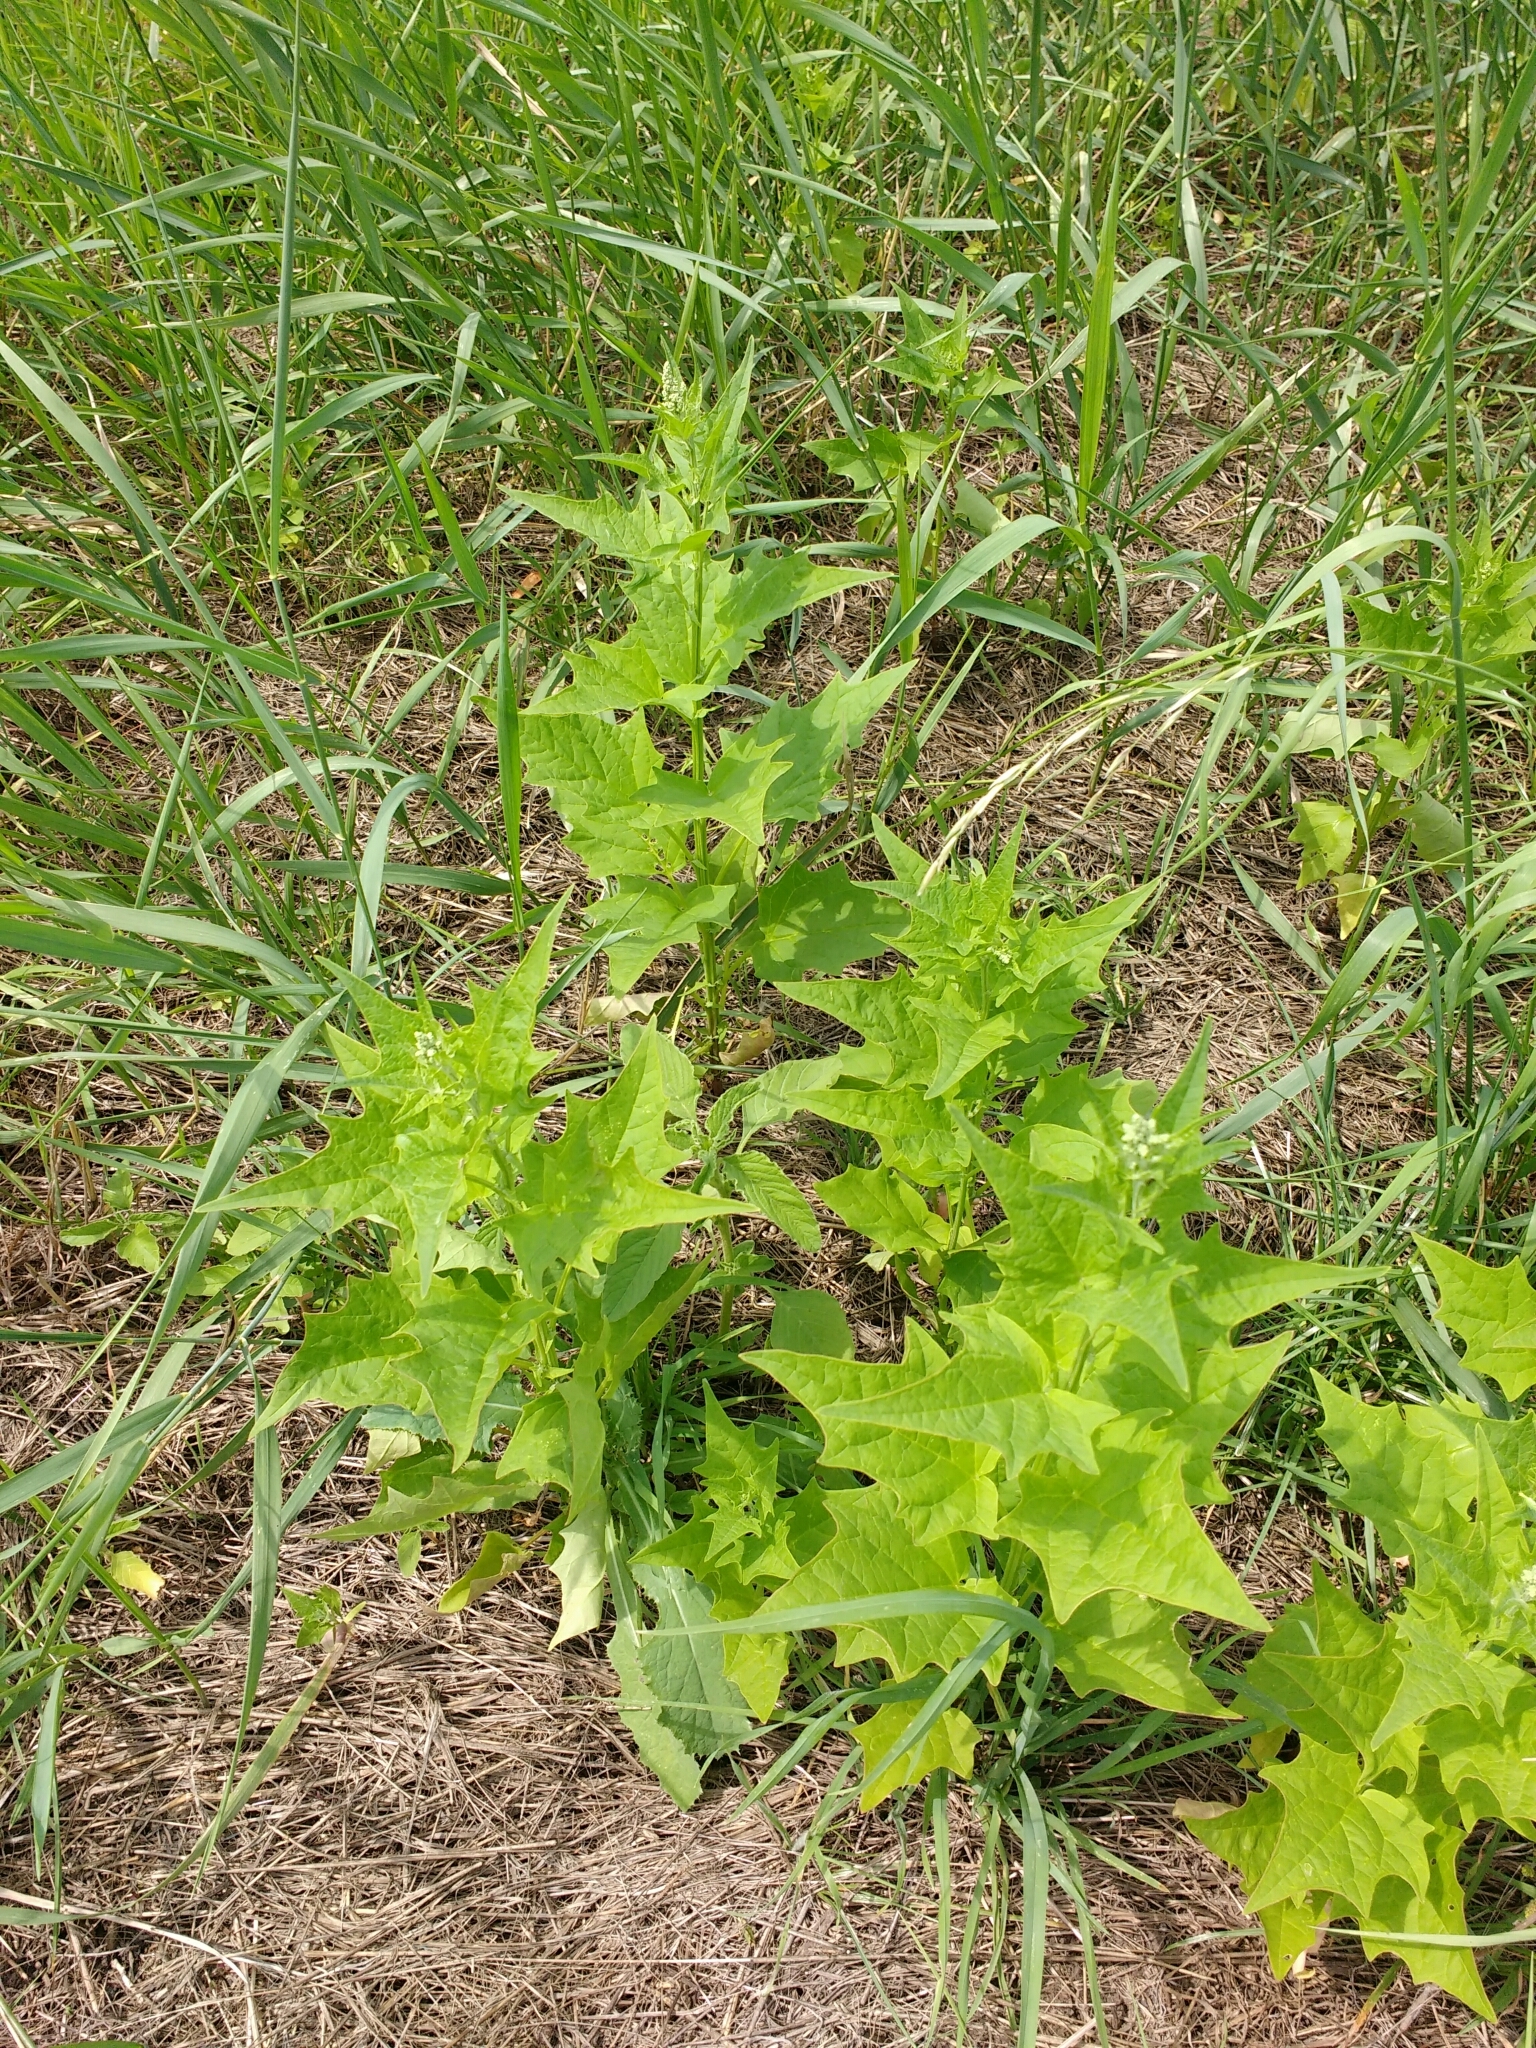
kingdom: Plantae
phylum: Tracheophyta
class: Magnoliopsida
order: Caryophyllales
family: Amaranthaceae
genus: Chenopodiastrum
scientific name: Chenopodiastrum hybridum
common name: Mapleleaf goosefoot
